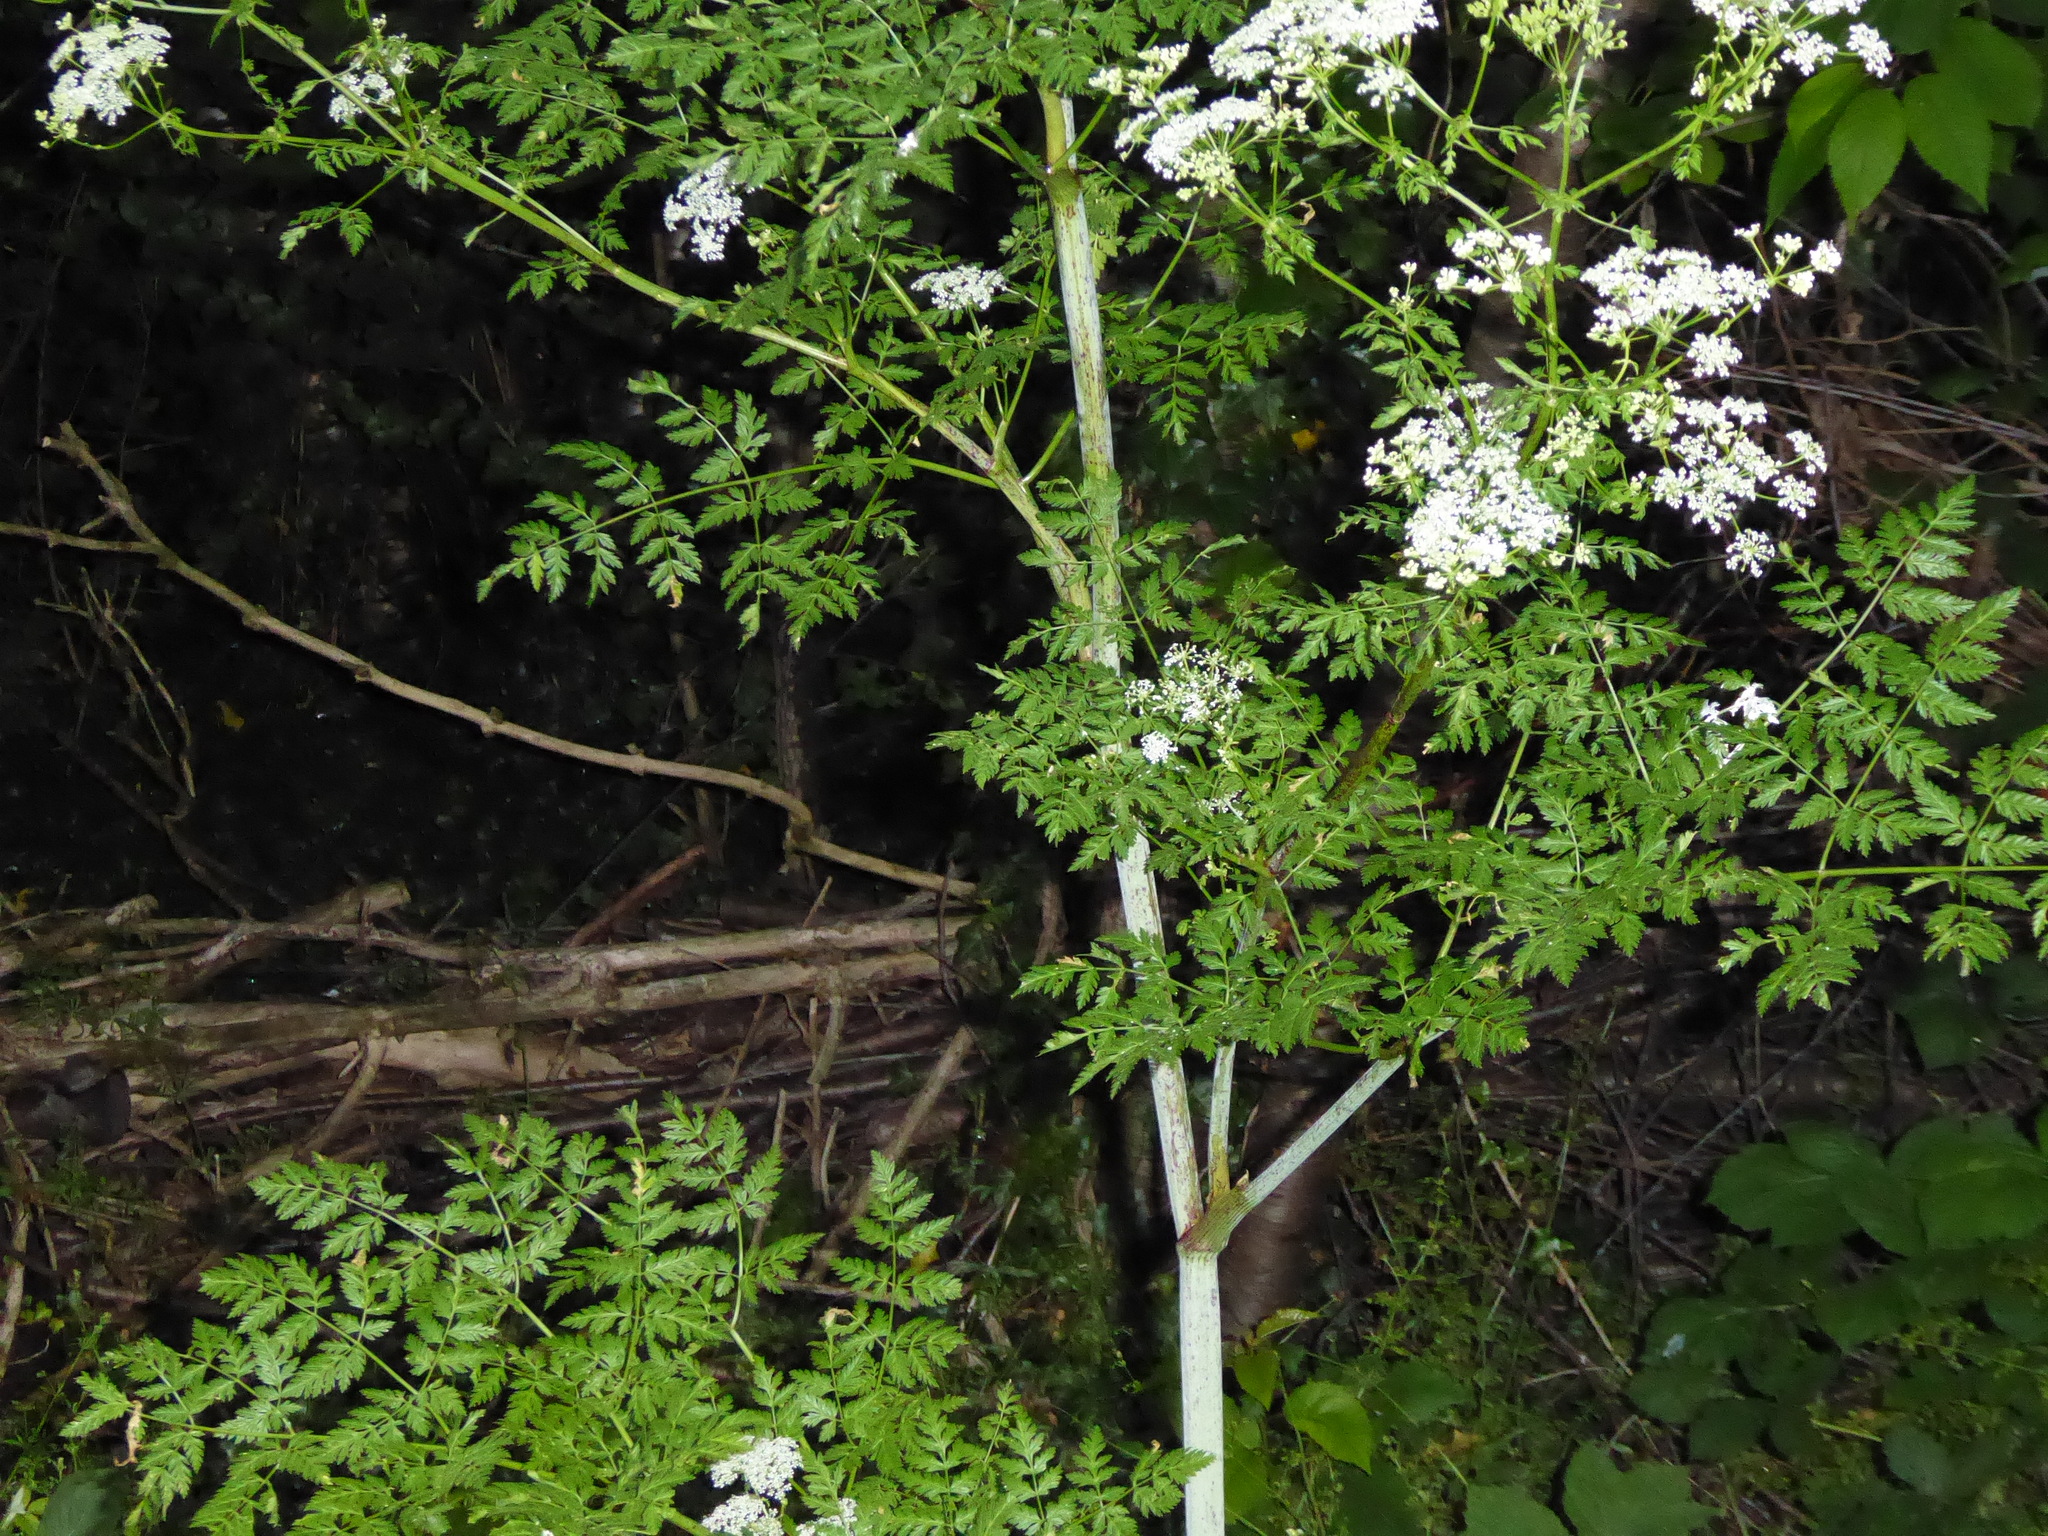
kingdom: Plantae
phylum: Tracheophyta
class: Magnoliopsida
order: Apiales
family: Apiaceae
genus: Conium
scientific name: Conium maculatum
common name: Hemlock
